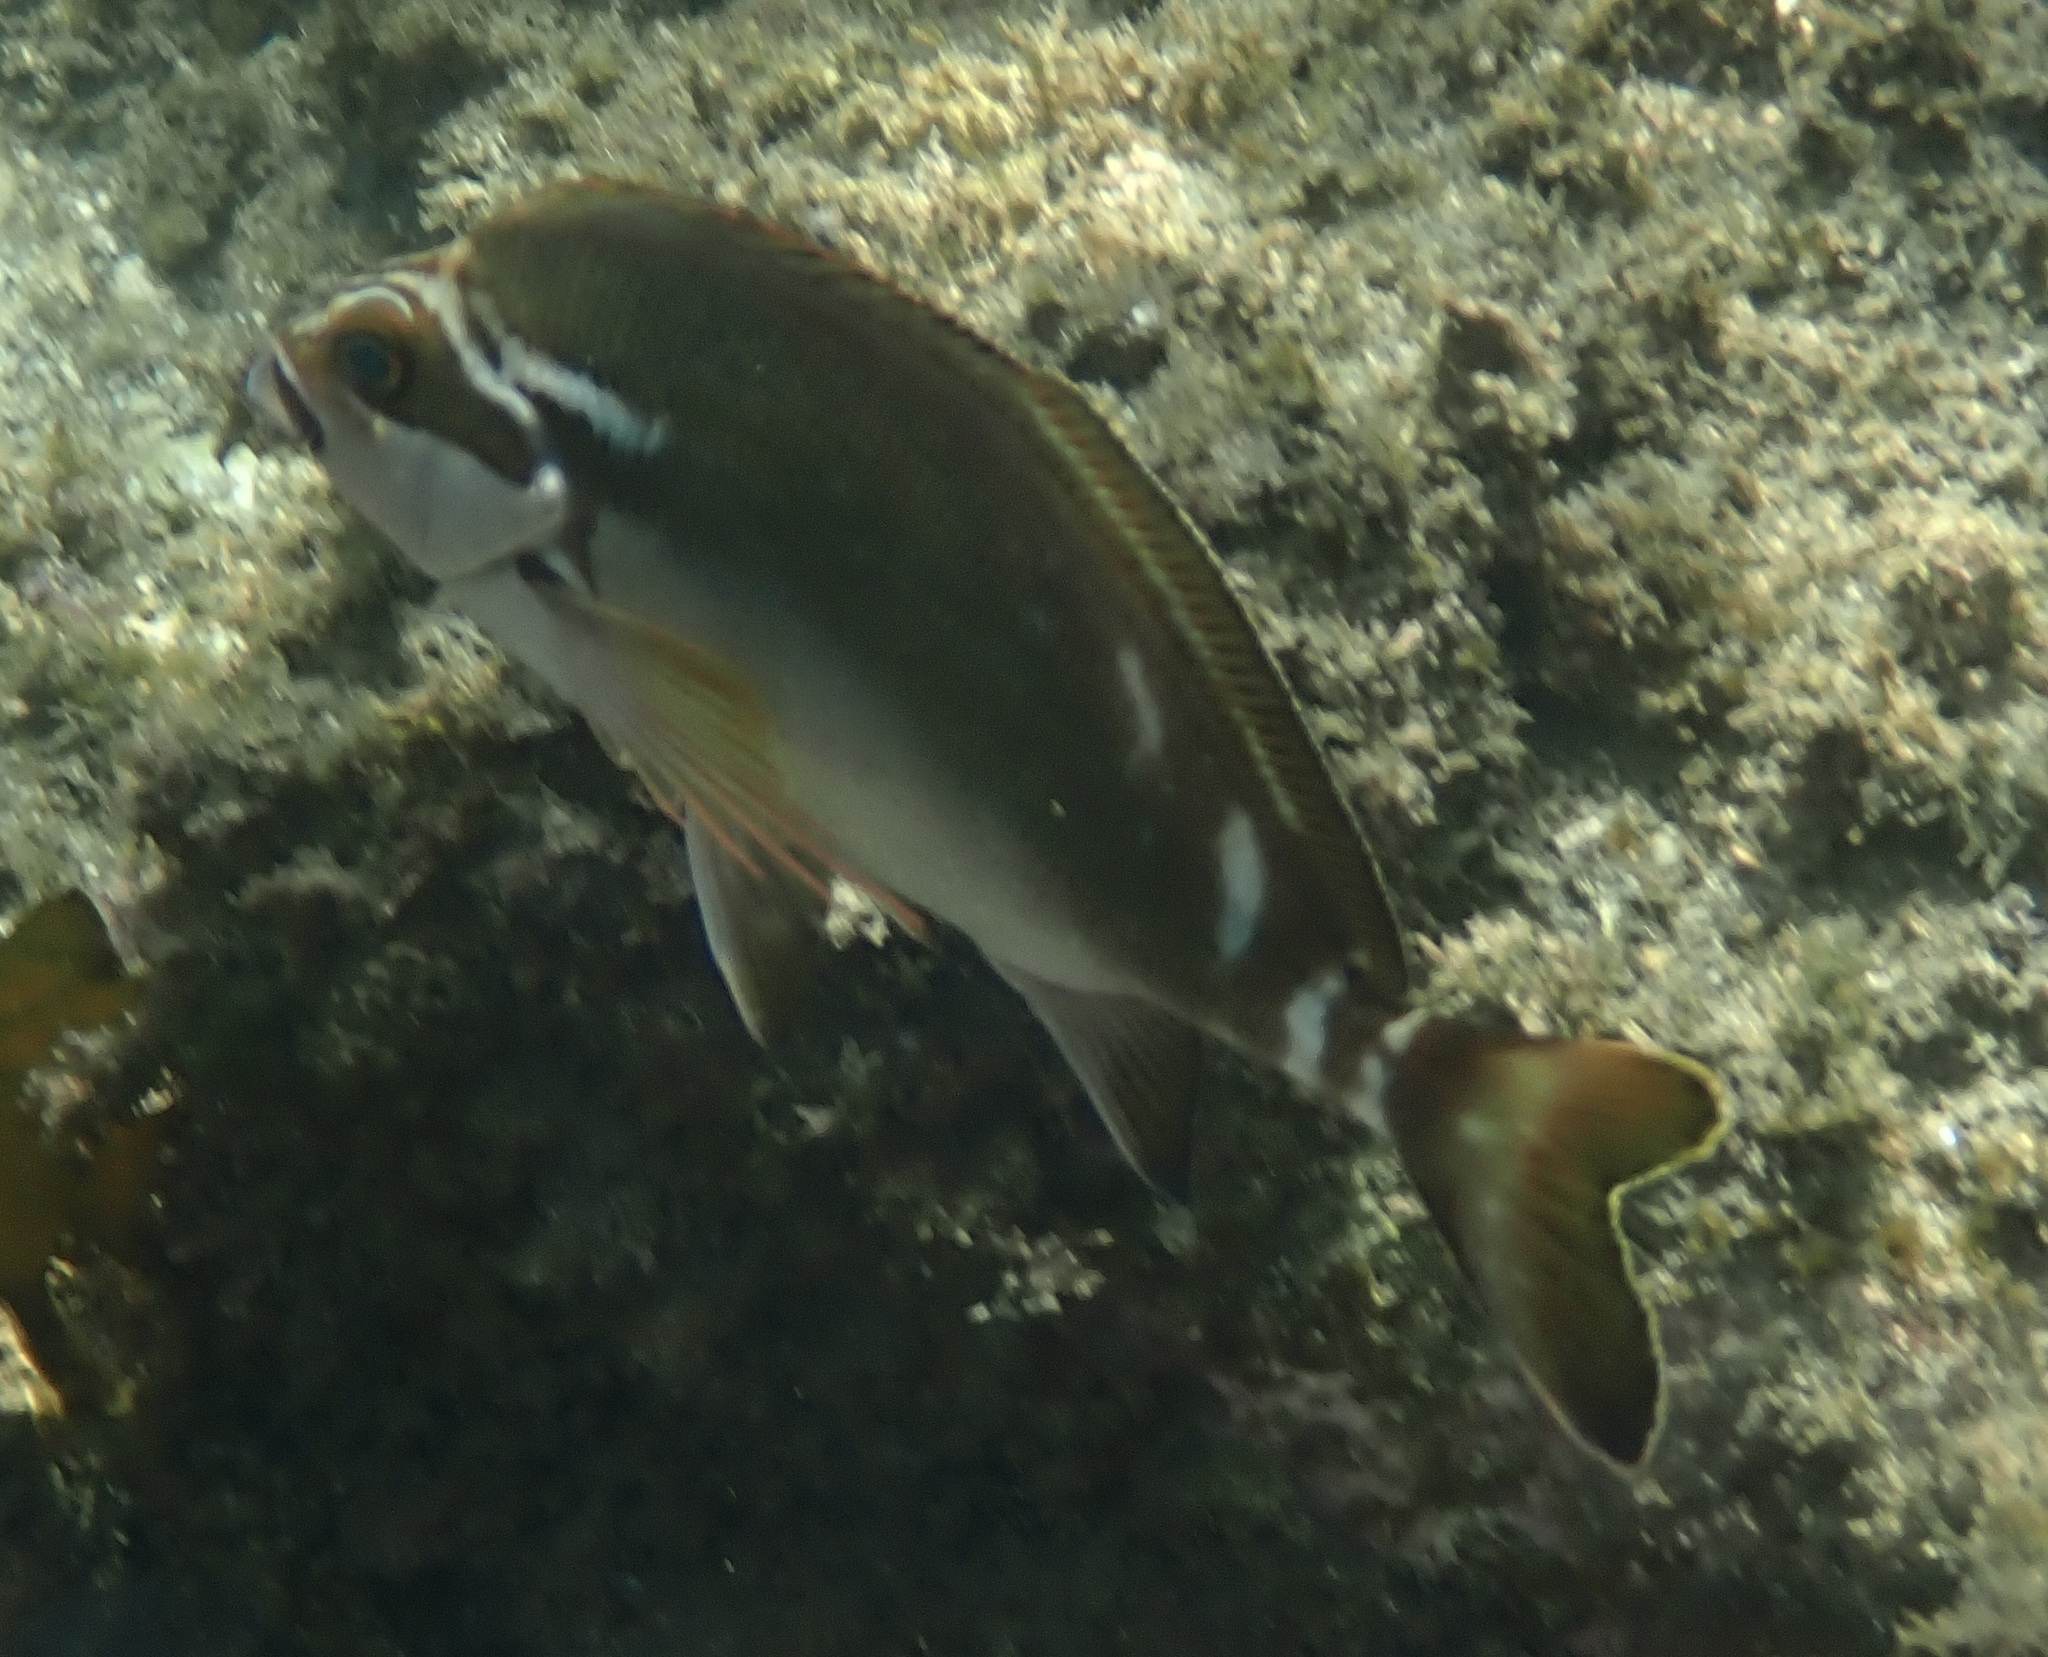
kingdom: Animalia
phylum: Chordata
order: Perciformes
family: Latridae
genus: Morwong
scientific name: Morwong fuscus
